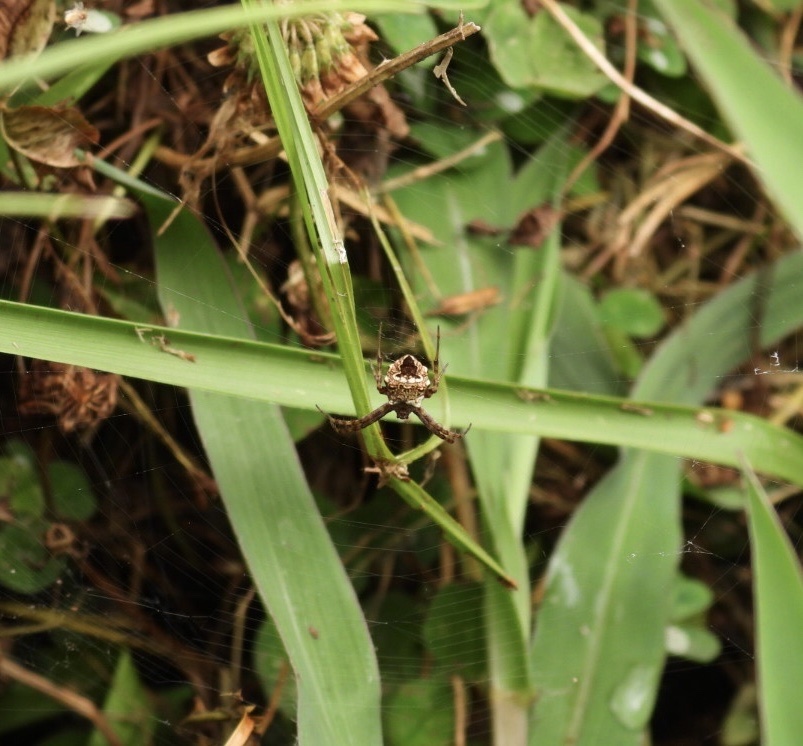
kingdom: Animalia
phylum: Arthropoda
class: Arachnida
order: Araneae
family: Araneidae
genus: Gea
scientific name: Gea heptagon
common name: Orb weavers
